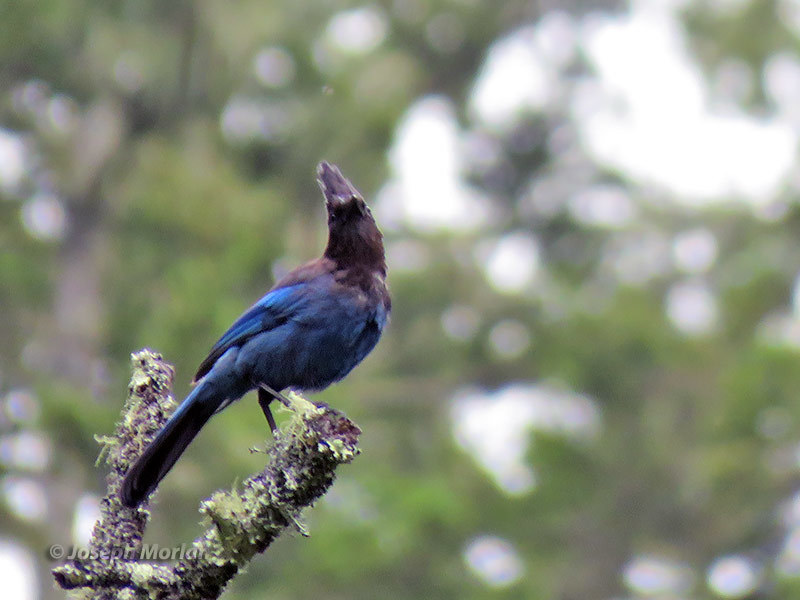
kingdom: Animalia
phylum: Chordata
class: Aves
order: Passeriformes
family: Corvidae
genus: Cyanocitta
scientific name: Cyanocitta stelleri
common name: Steller's jay
